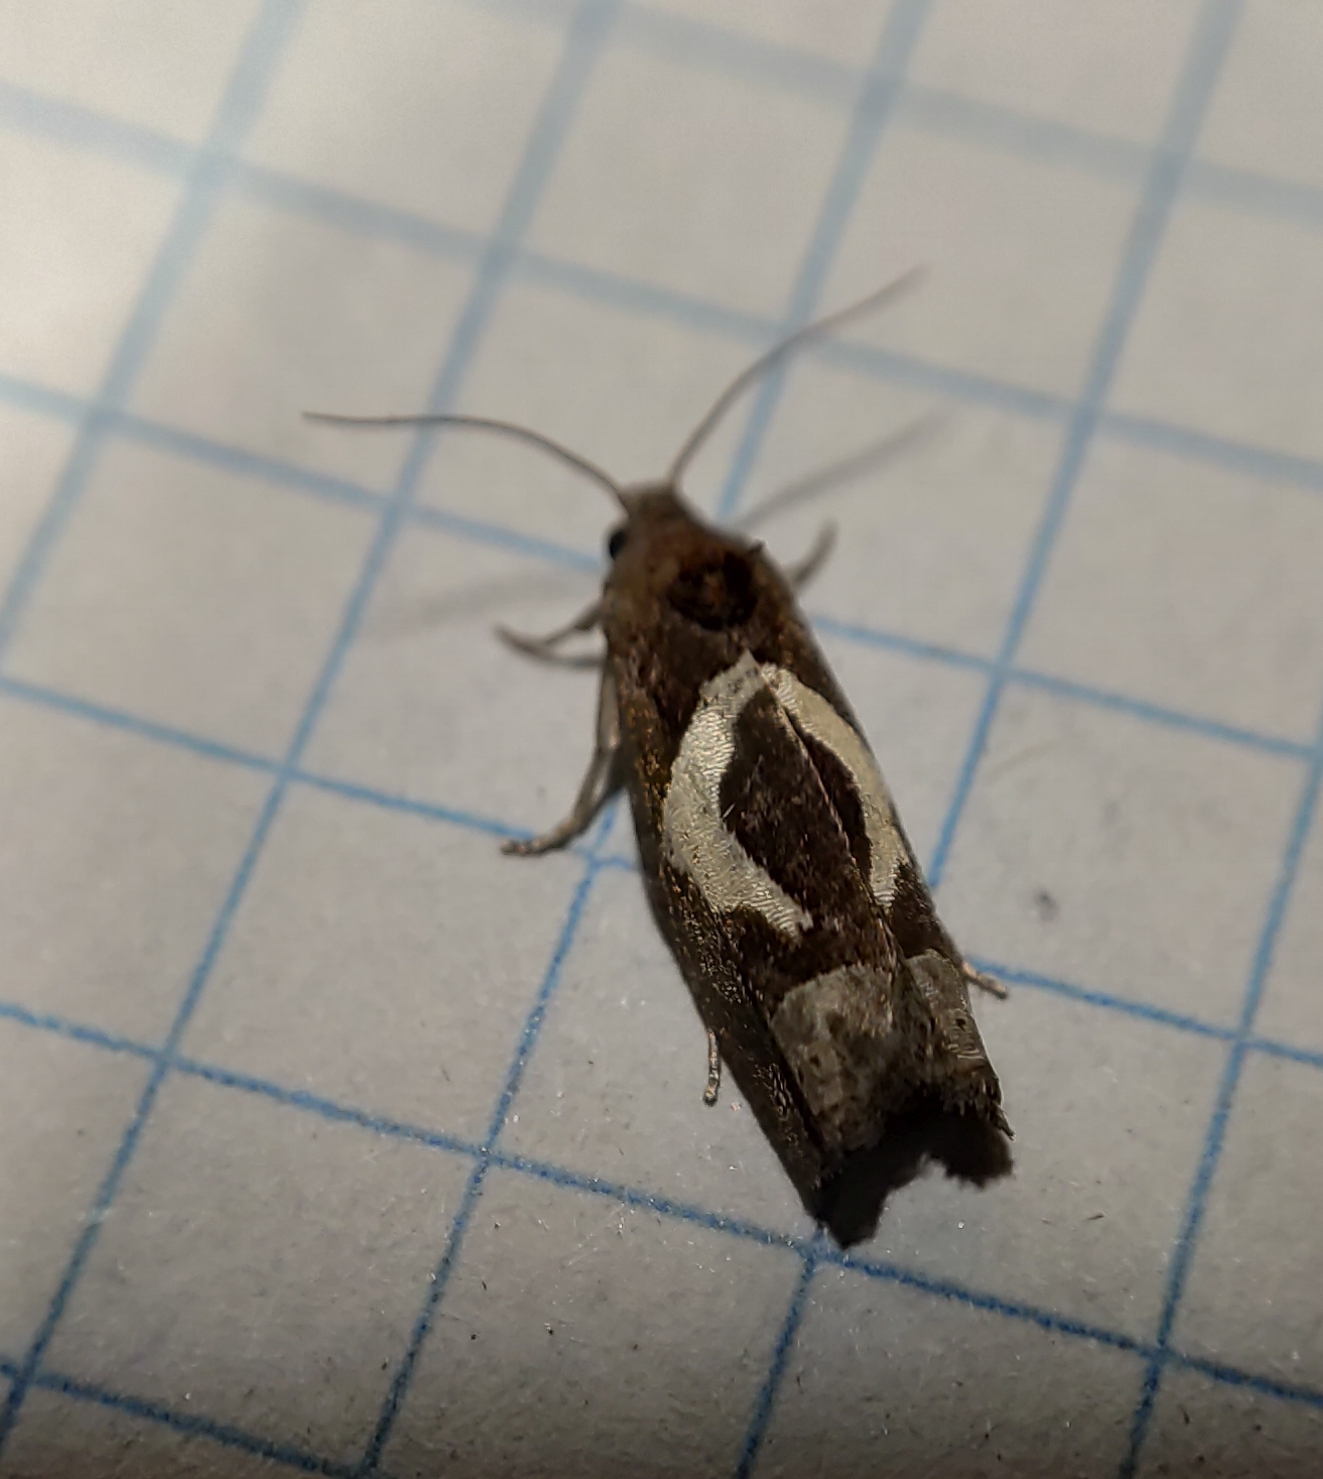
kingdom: Animalia
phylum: Arthropoda
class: Insecta
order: Lepidoptera
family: Tortricidae
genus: Epiblema
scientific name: Epiblema foenella
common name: White-foot bell
